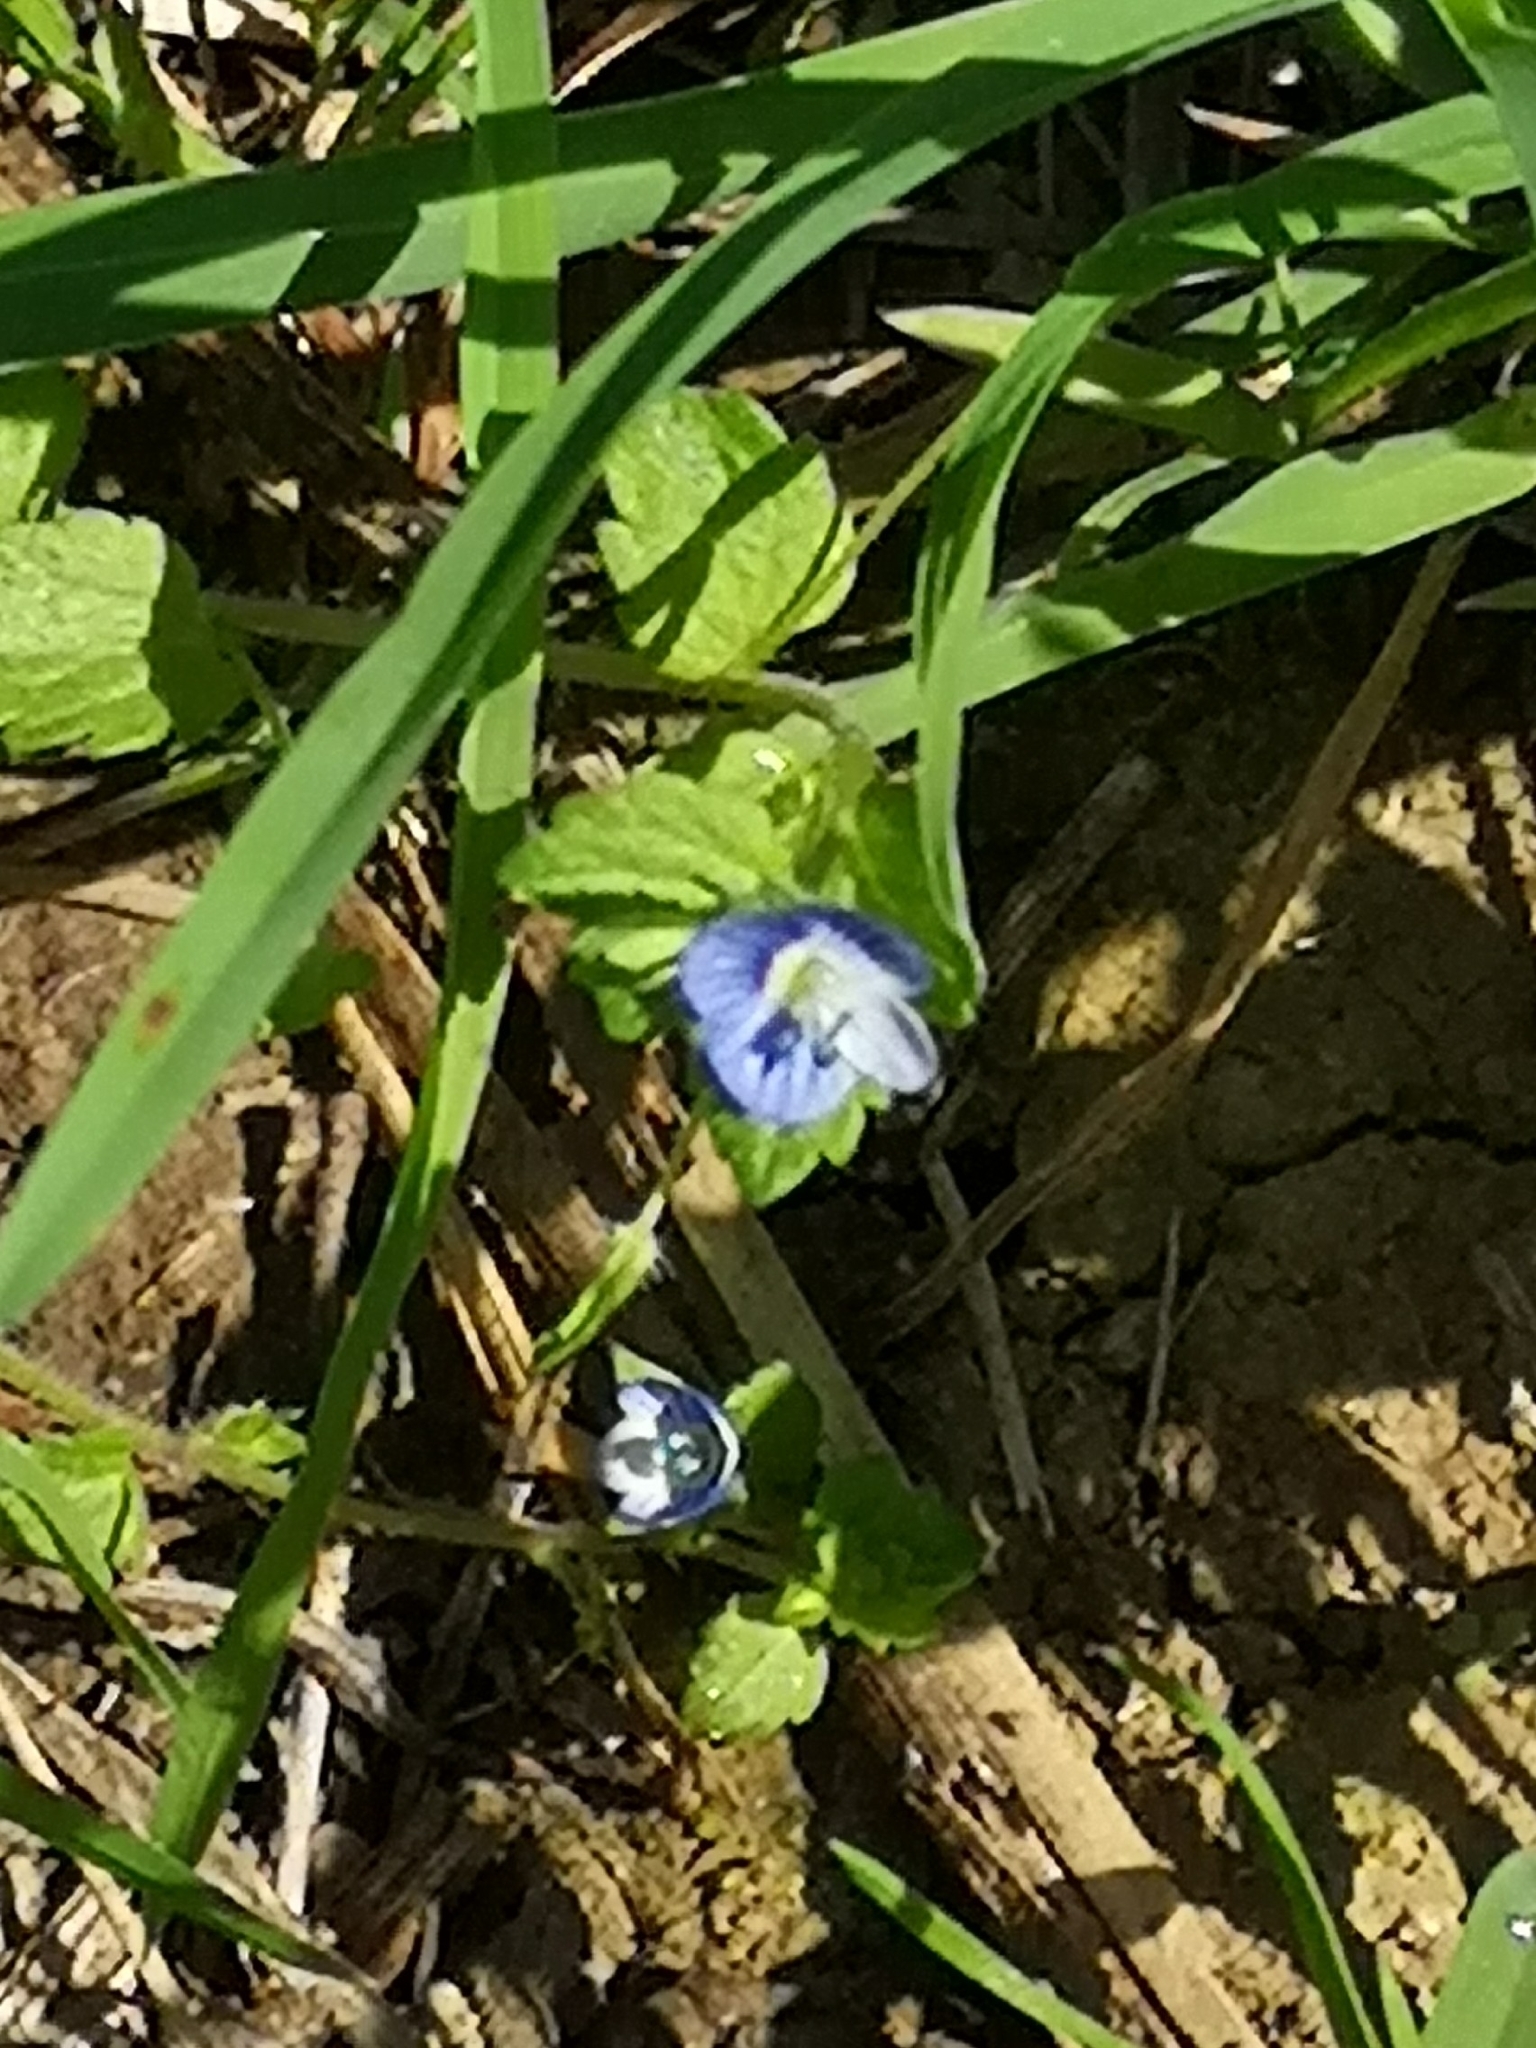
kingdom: Plantae
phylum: Tracheophyta
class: Magnoliopsida
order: Lamiales
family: Plantaginaceae
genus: Veronica
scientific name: Veronica persica
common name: Common field-speedwell
